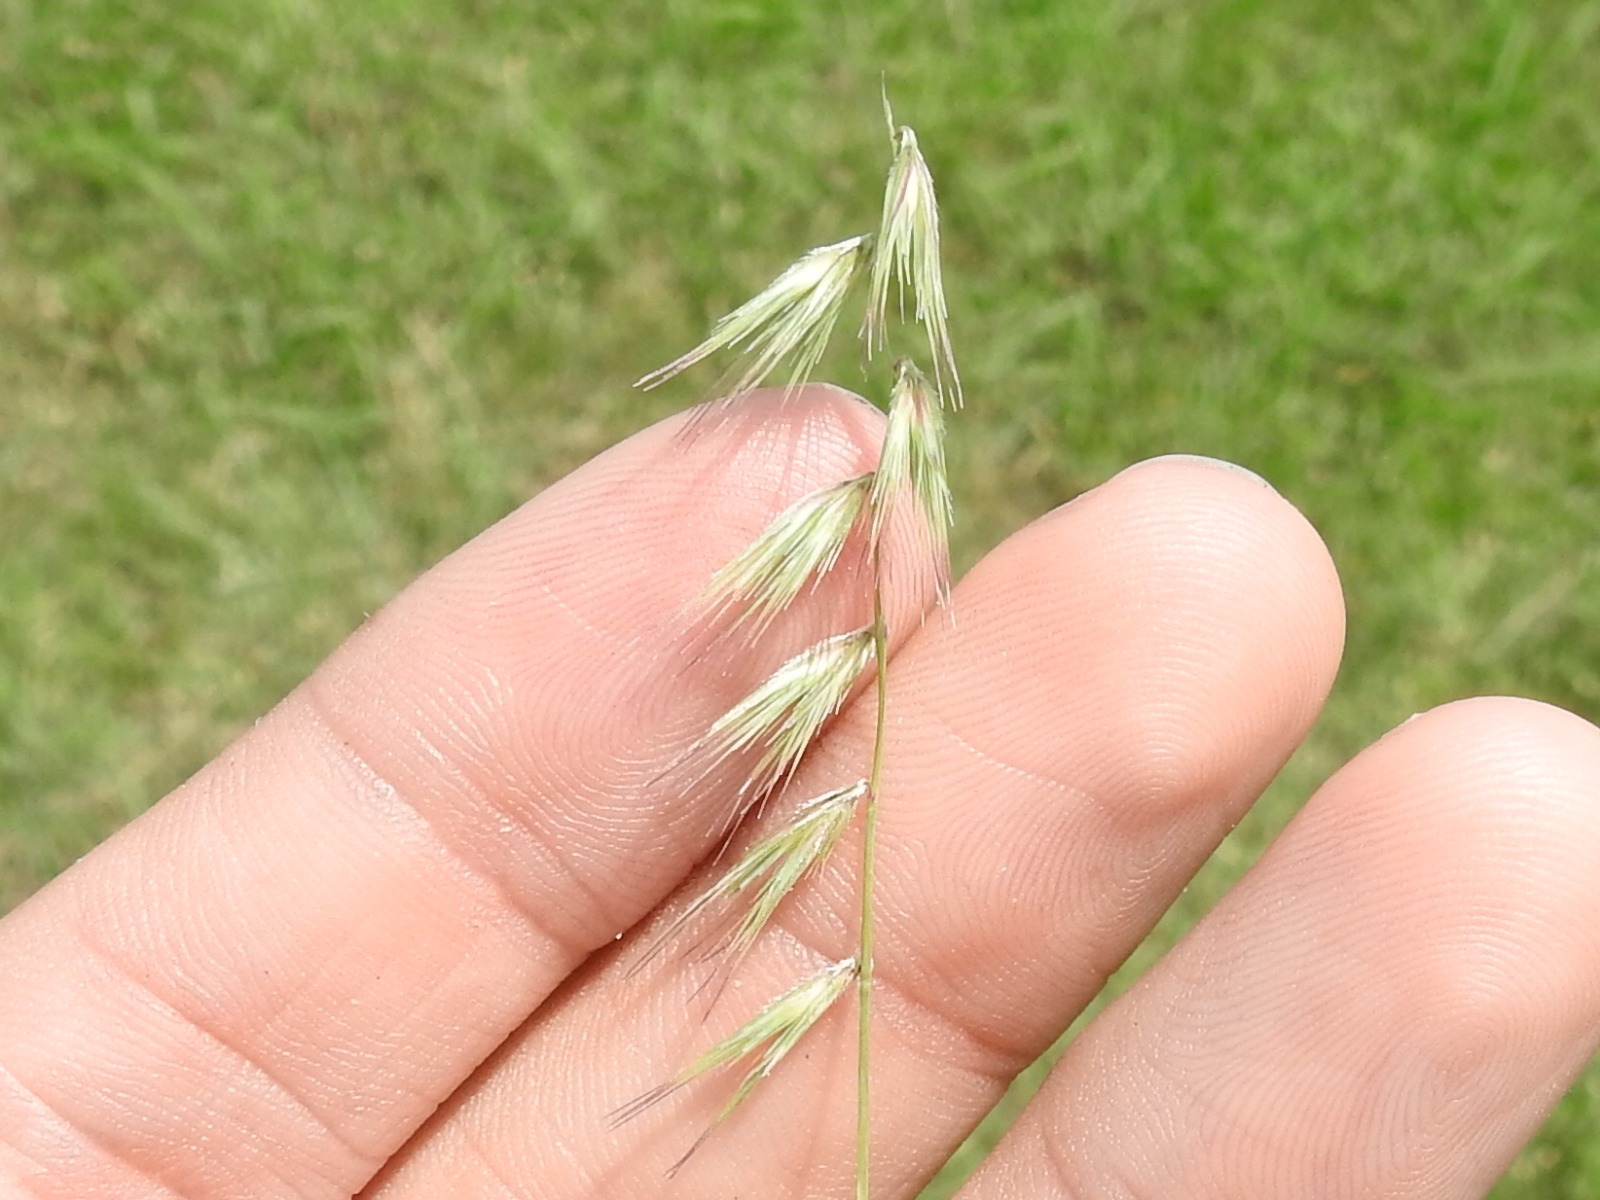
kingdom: Plantae
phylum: Tracheophyta
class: Liliopsida
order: Poales
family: Poaceae
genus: Bouteloua
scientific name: Bouteloua rigidiseta
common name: Texas grama
